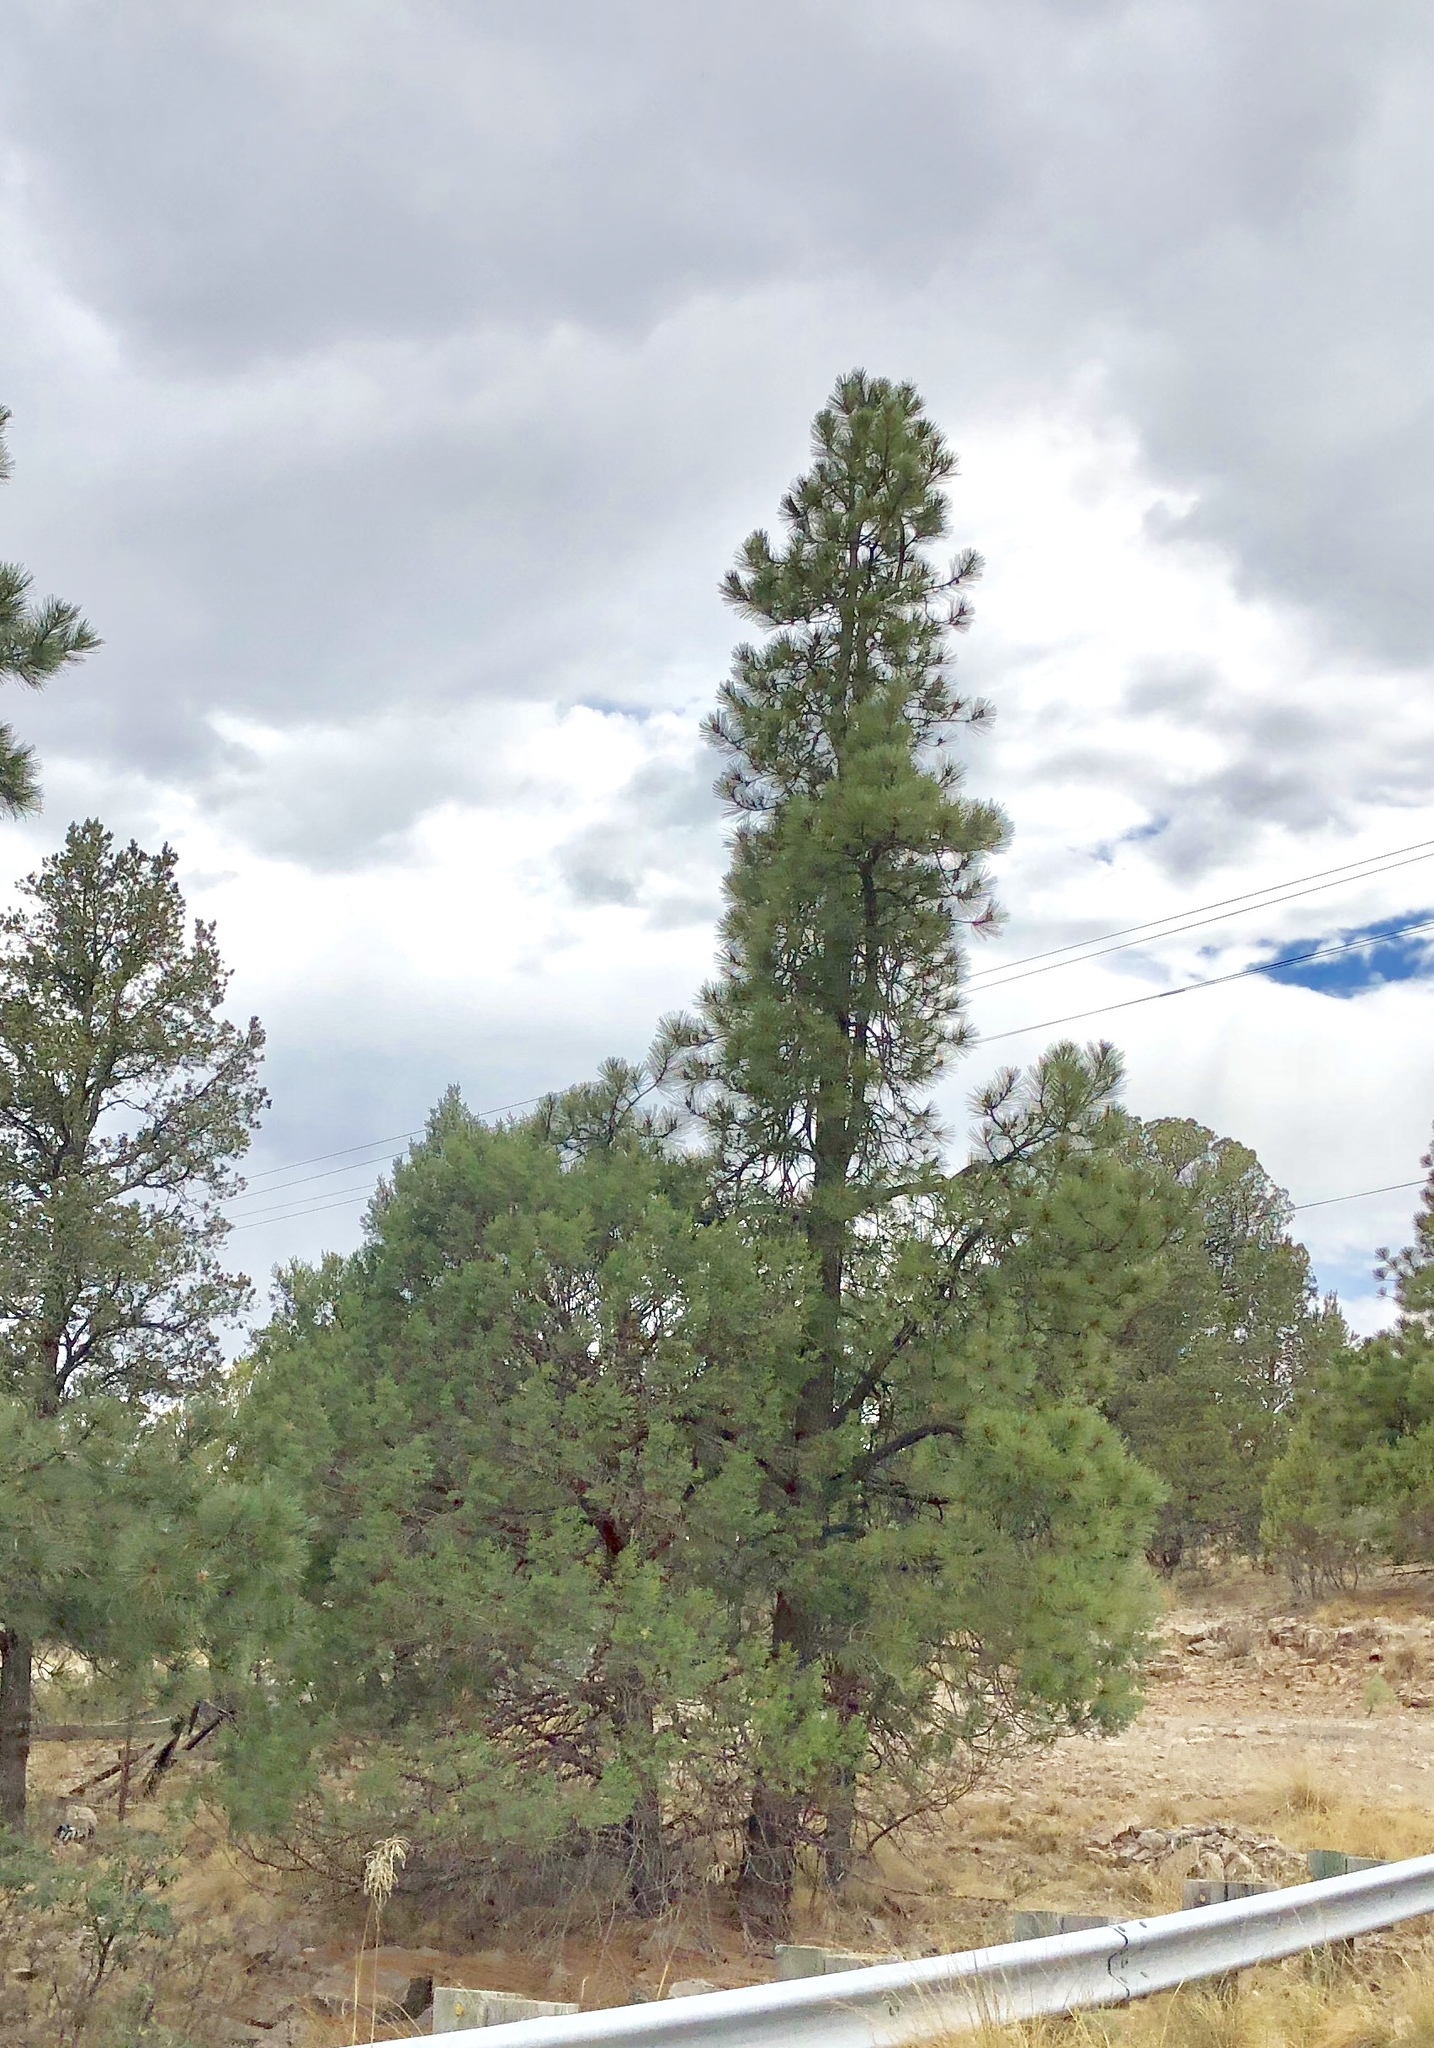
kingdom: Plantae
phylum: Tracheophyta
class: Pinopsida
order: Pinales
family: Pinaceae
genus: Pinus
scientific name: Pinus ponderosa
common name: Western yellow-pine
